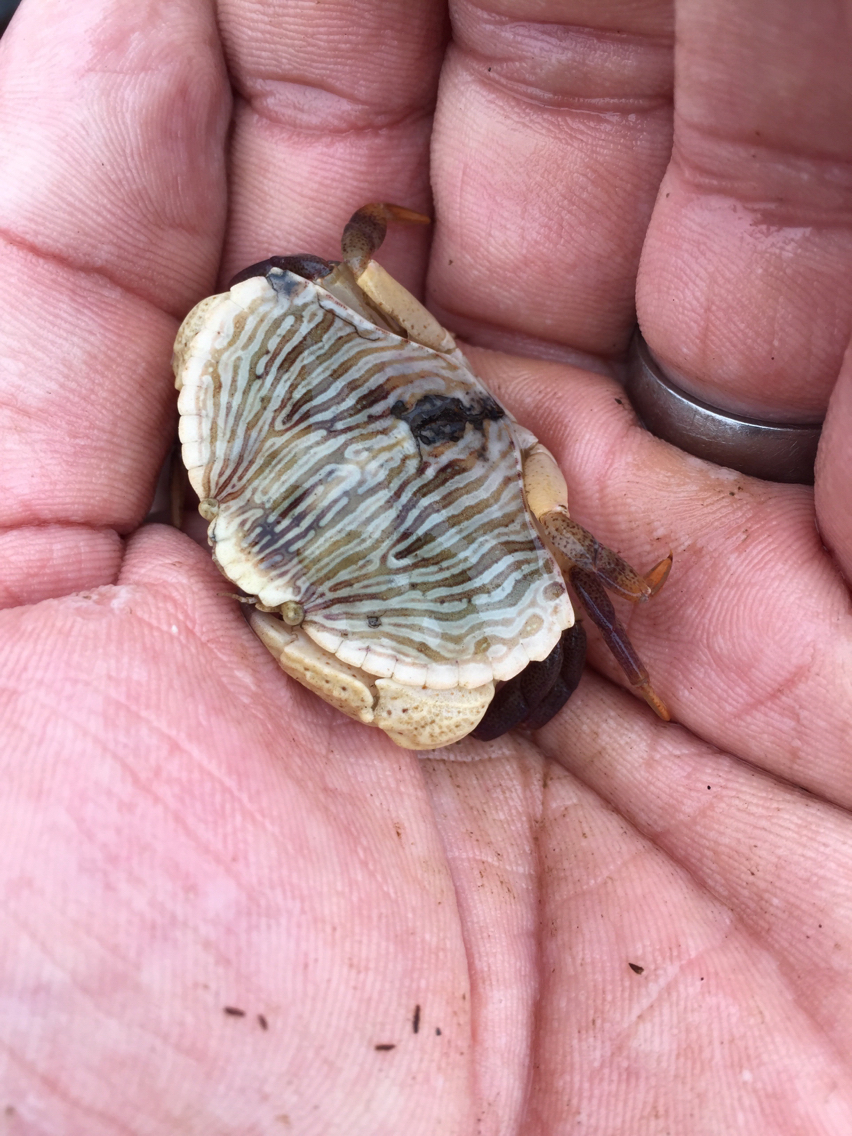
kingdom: Animalia
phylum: Arthropoda
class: Malacostraca
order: Decapoda
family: Cancridae
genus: Cancer
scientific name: Cancer productus
